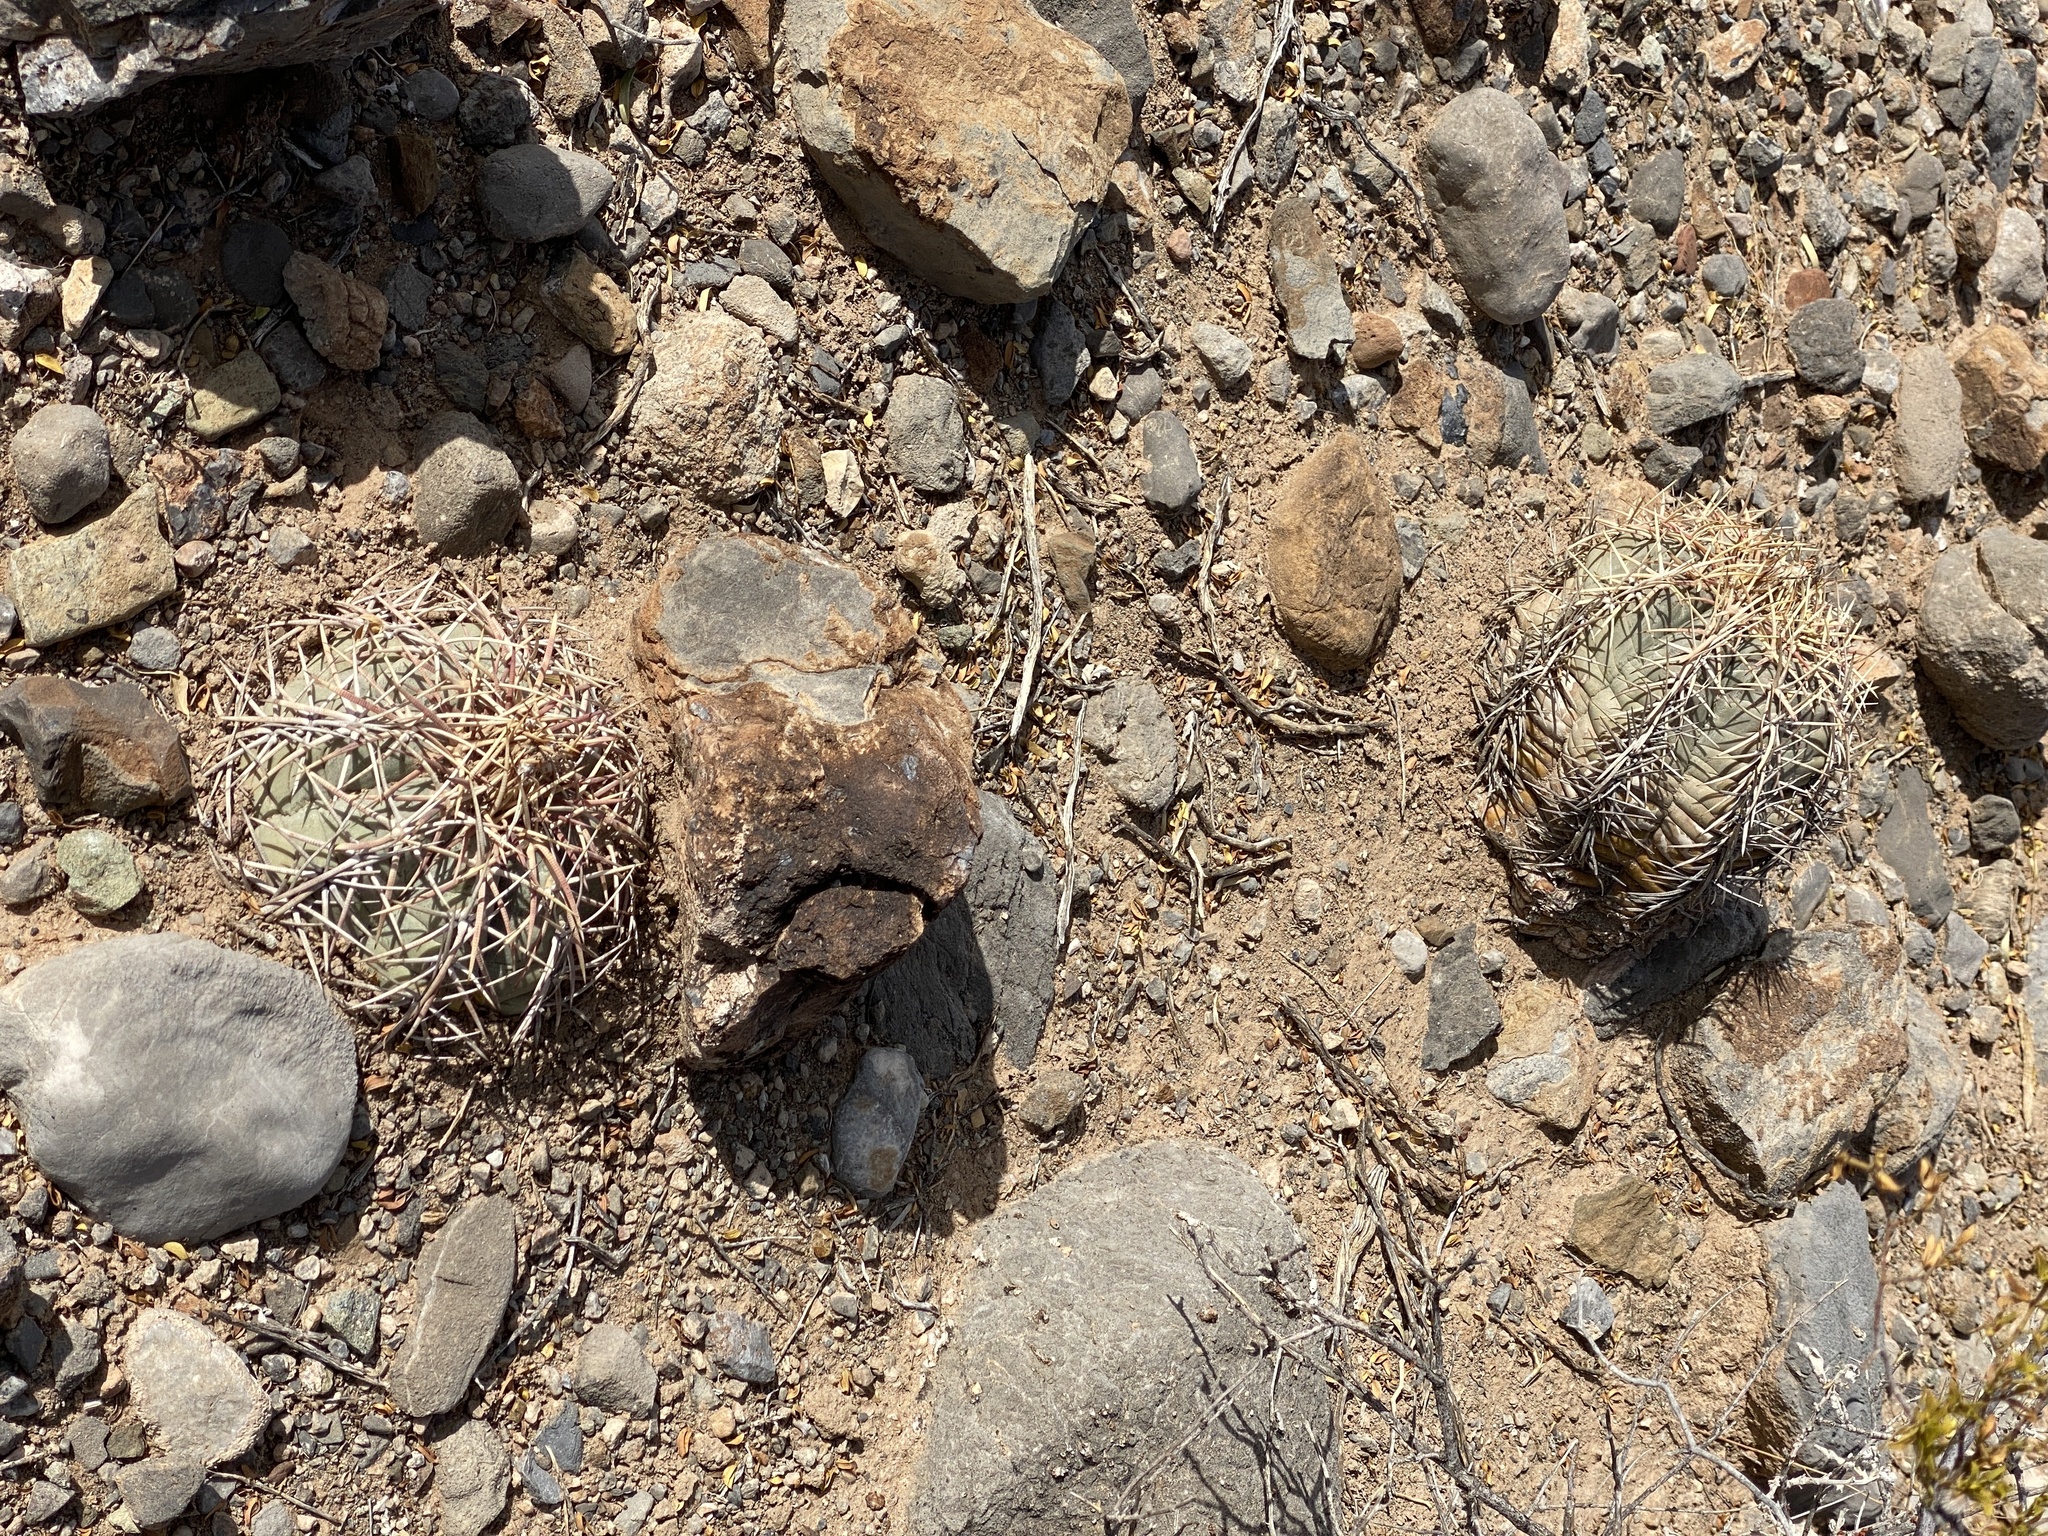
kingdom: Plantae
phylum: Tracheophyta
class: Magnoliopsida
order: Caryophyllales
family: Cactaceae
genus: Echinocactus
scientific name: Echinocactus horizonthalonius
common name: Devilshead
